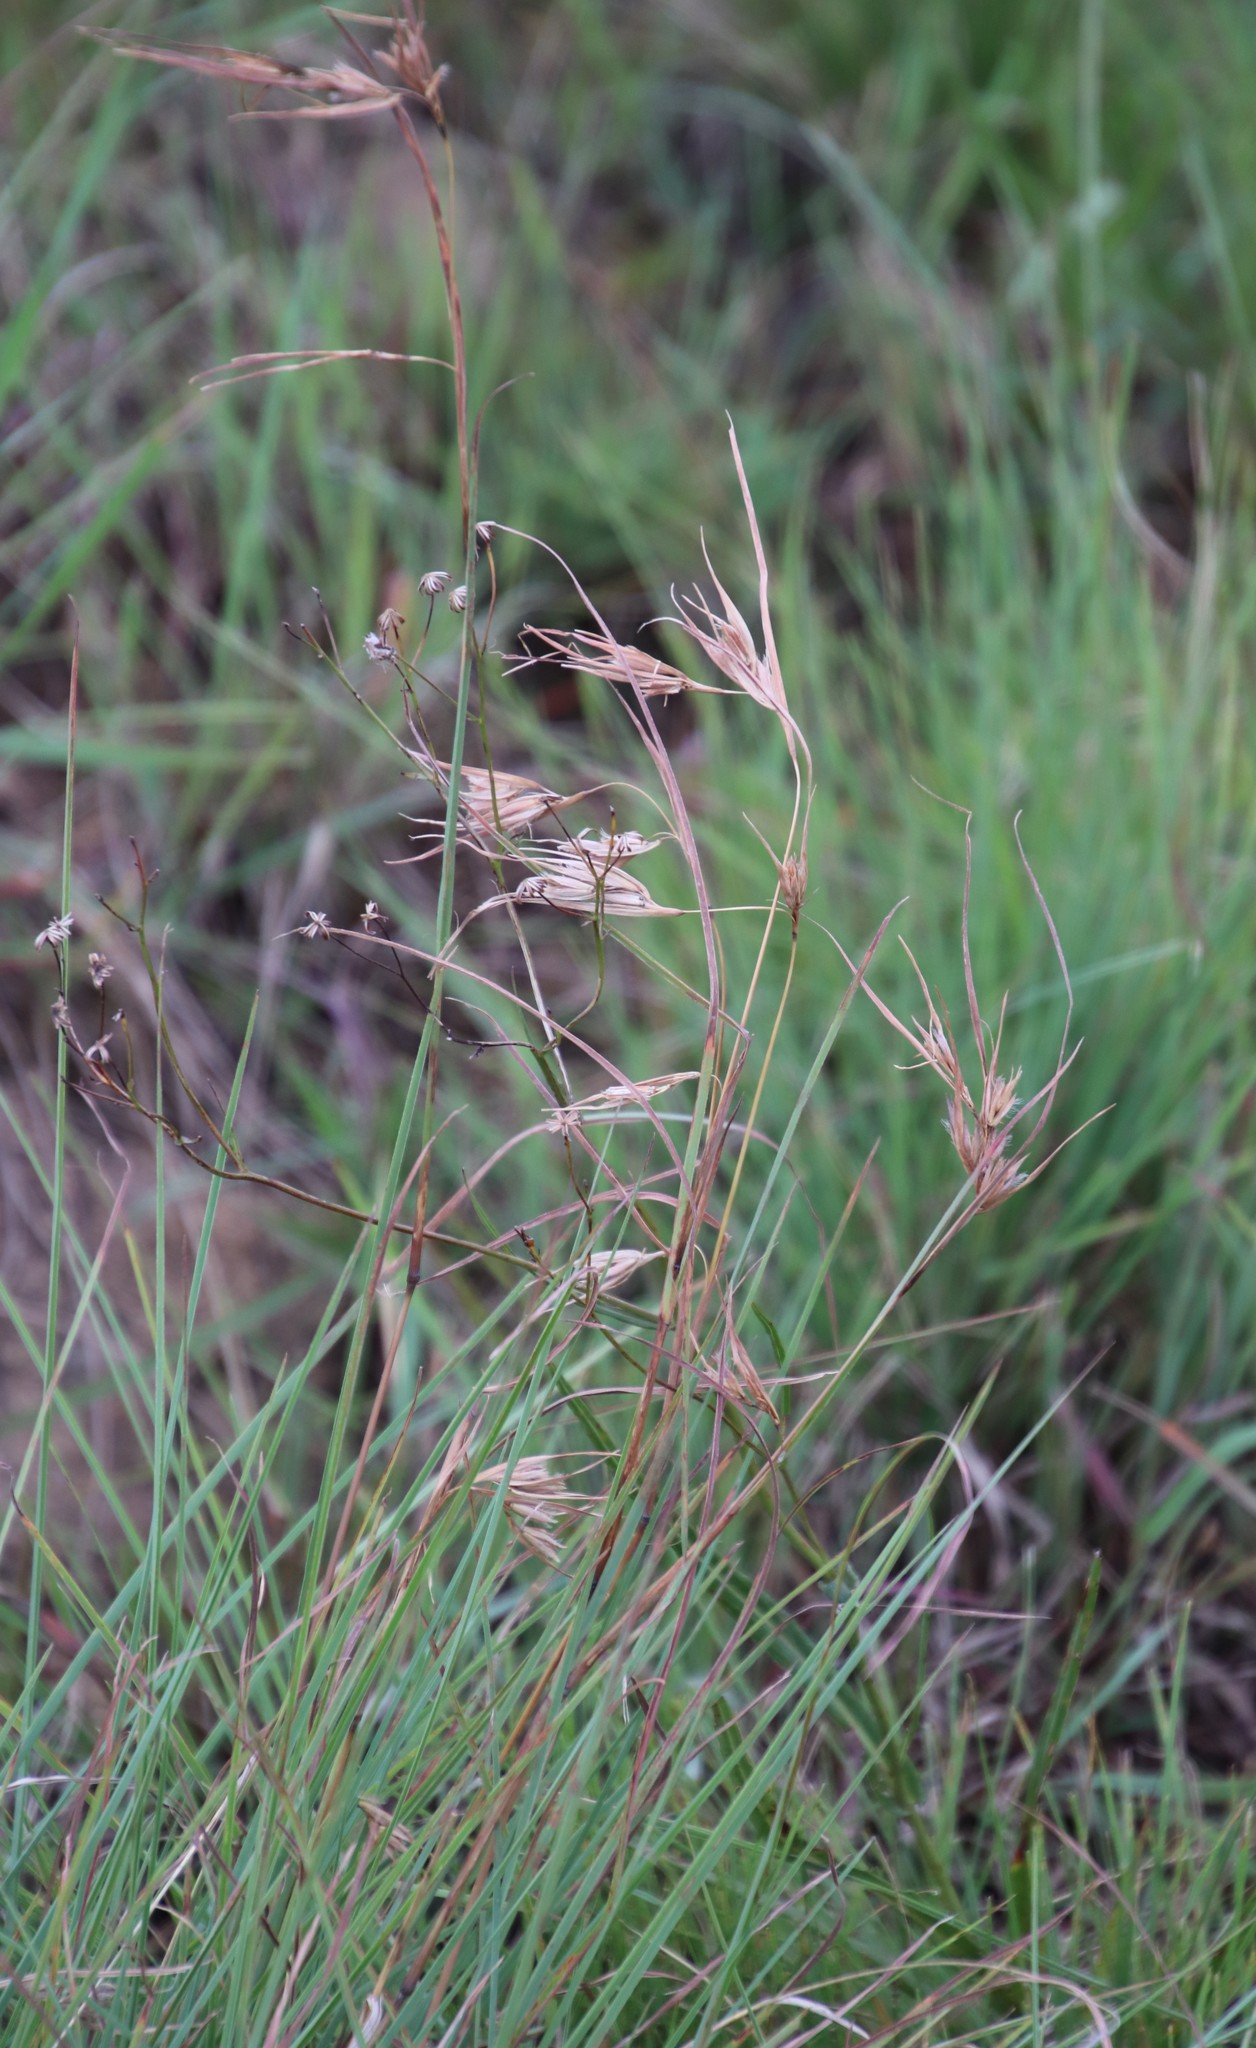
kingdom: Plantae
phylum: Tracheophyta
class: Liliopsida
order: Poales
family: Poaceae
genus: Themeda
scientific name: Themeda triandra
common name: Kangaroo grass
